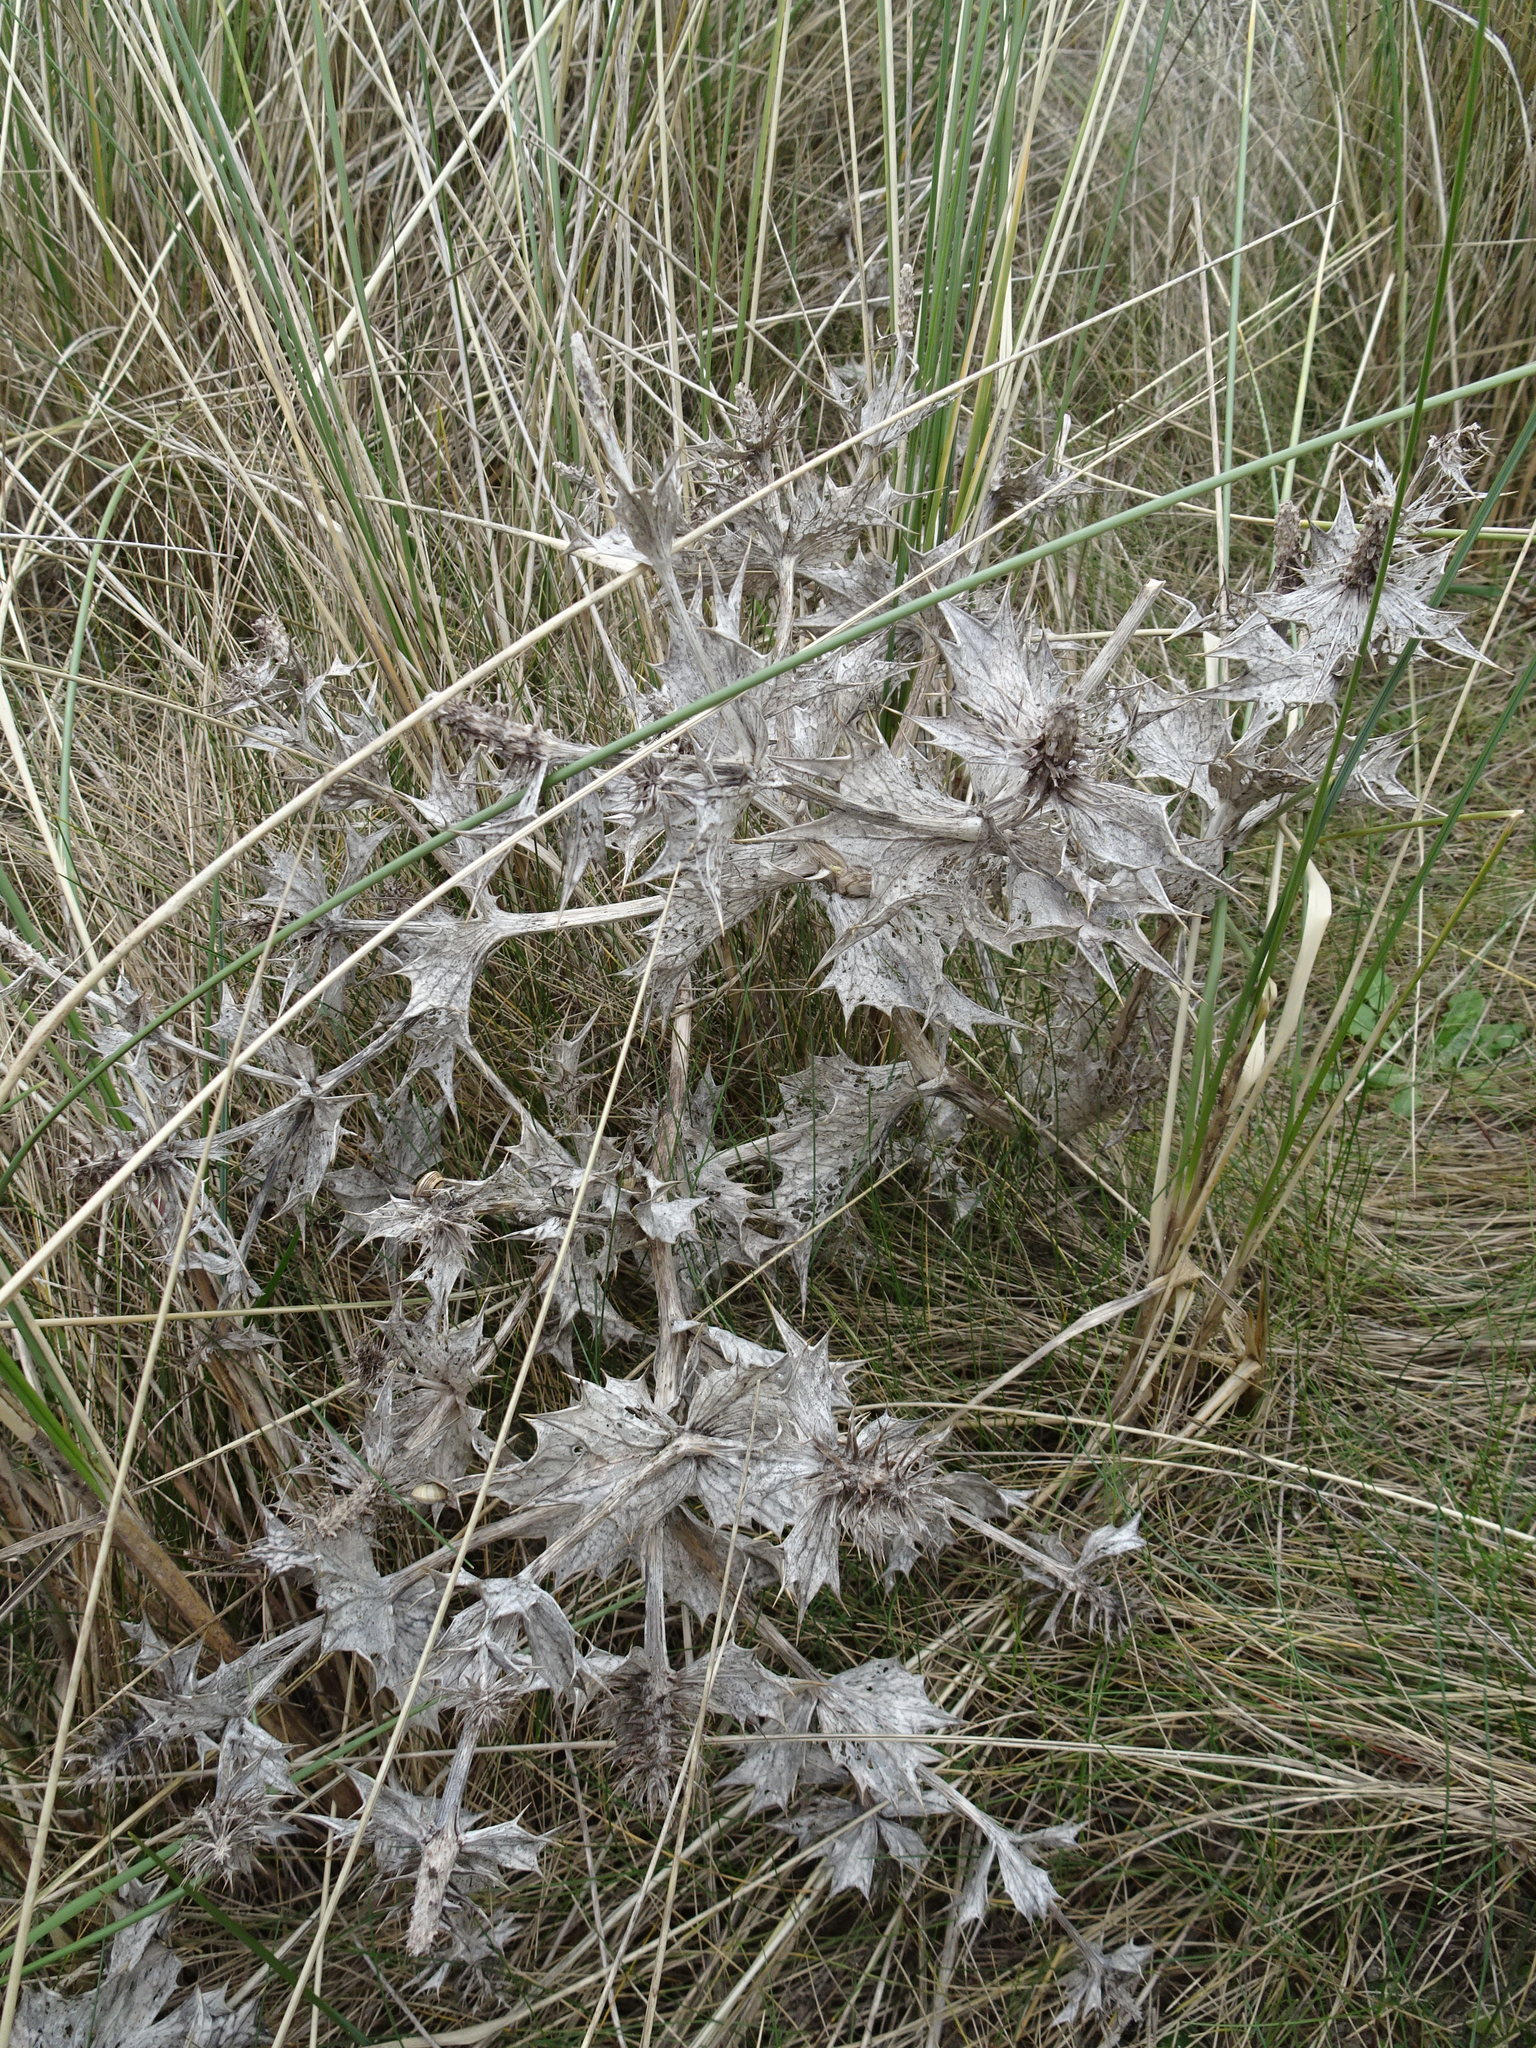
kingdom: Plantae
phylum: Tracheophyta
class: Magnoliopsida
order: Apiales
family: Apiaceae
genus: Eryngium
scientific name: Eryngium maritimum
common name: Sea-holly
